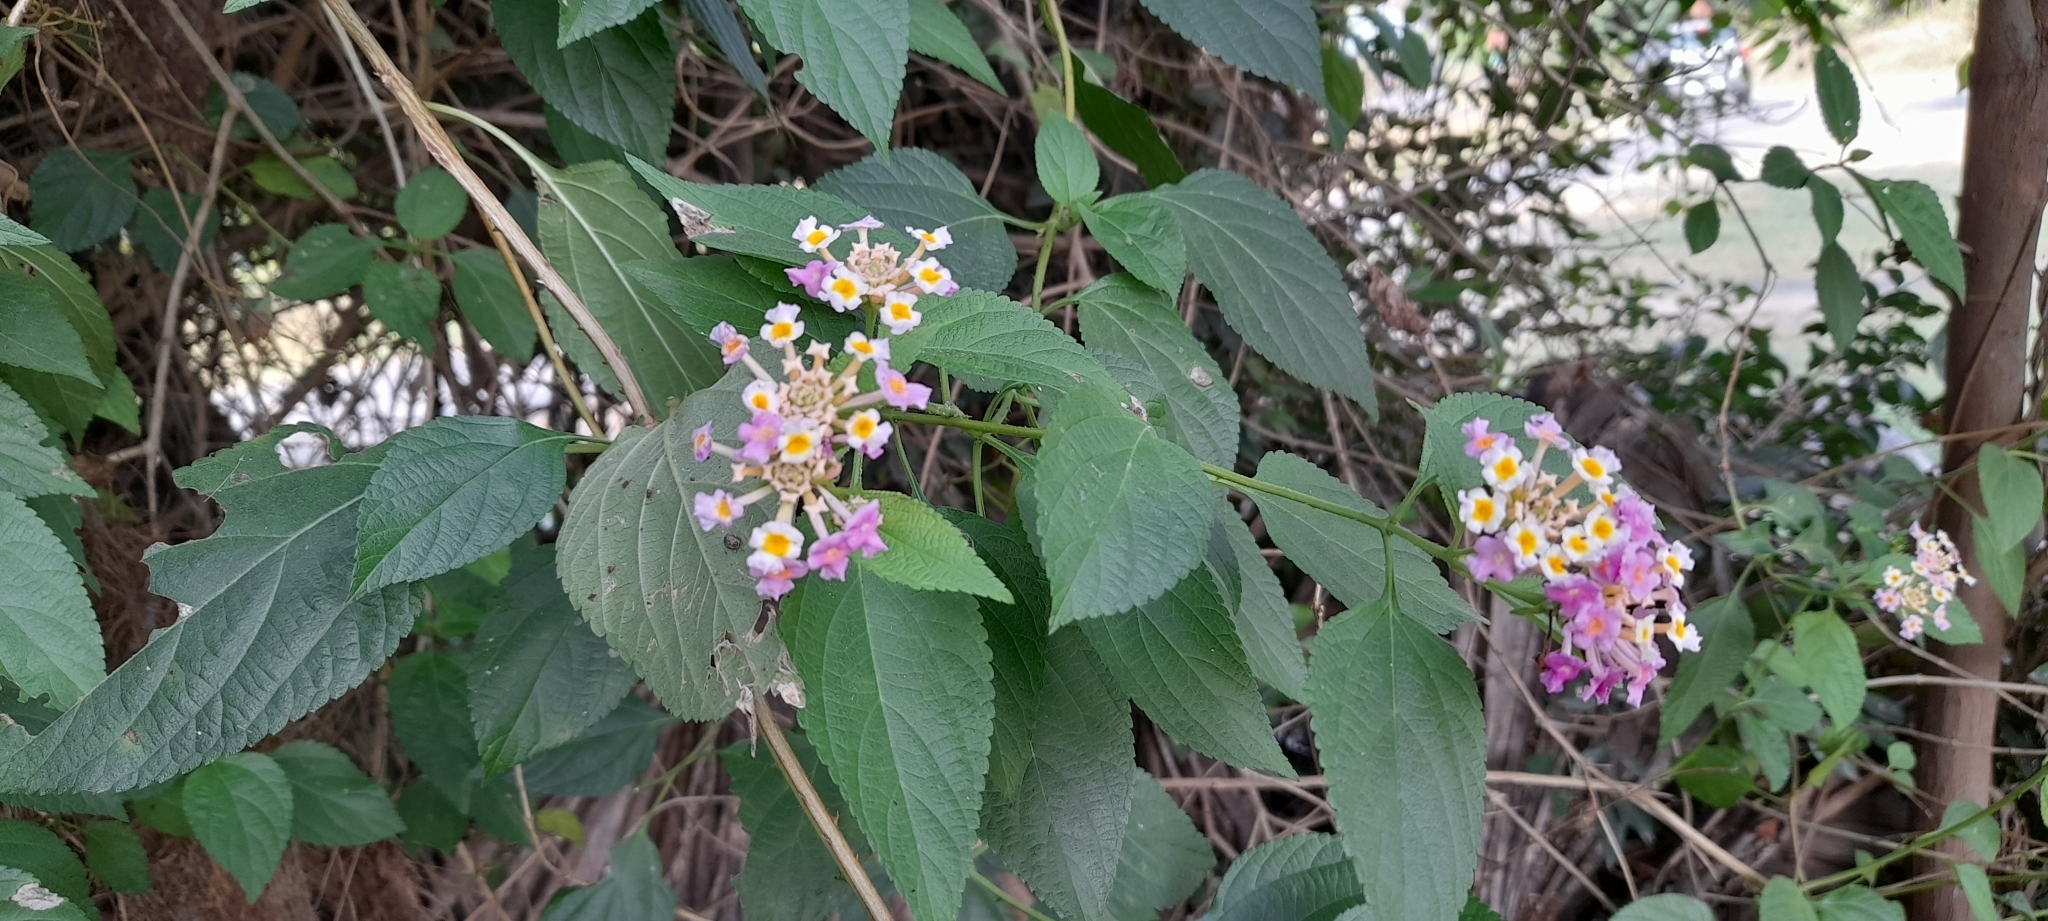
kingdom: Plantae
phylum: Tracheophyta
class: Magnoliopsida
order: Lamiales
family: Verbenaceae
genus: Lantana
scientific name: Lantana camara
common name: Lantana
